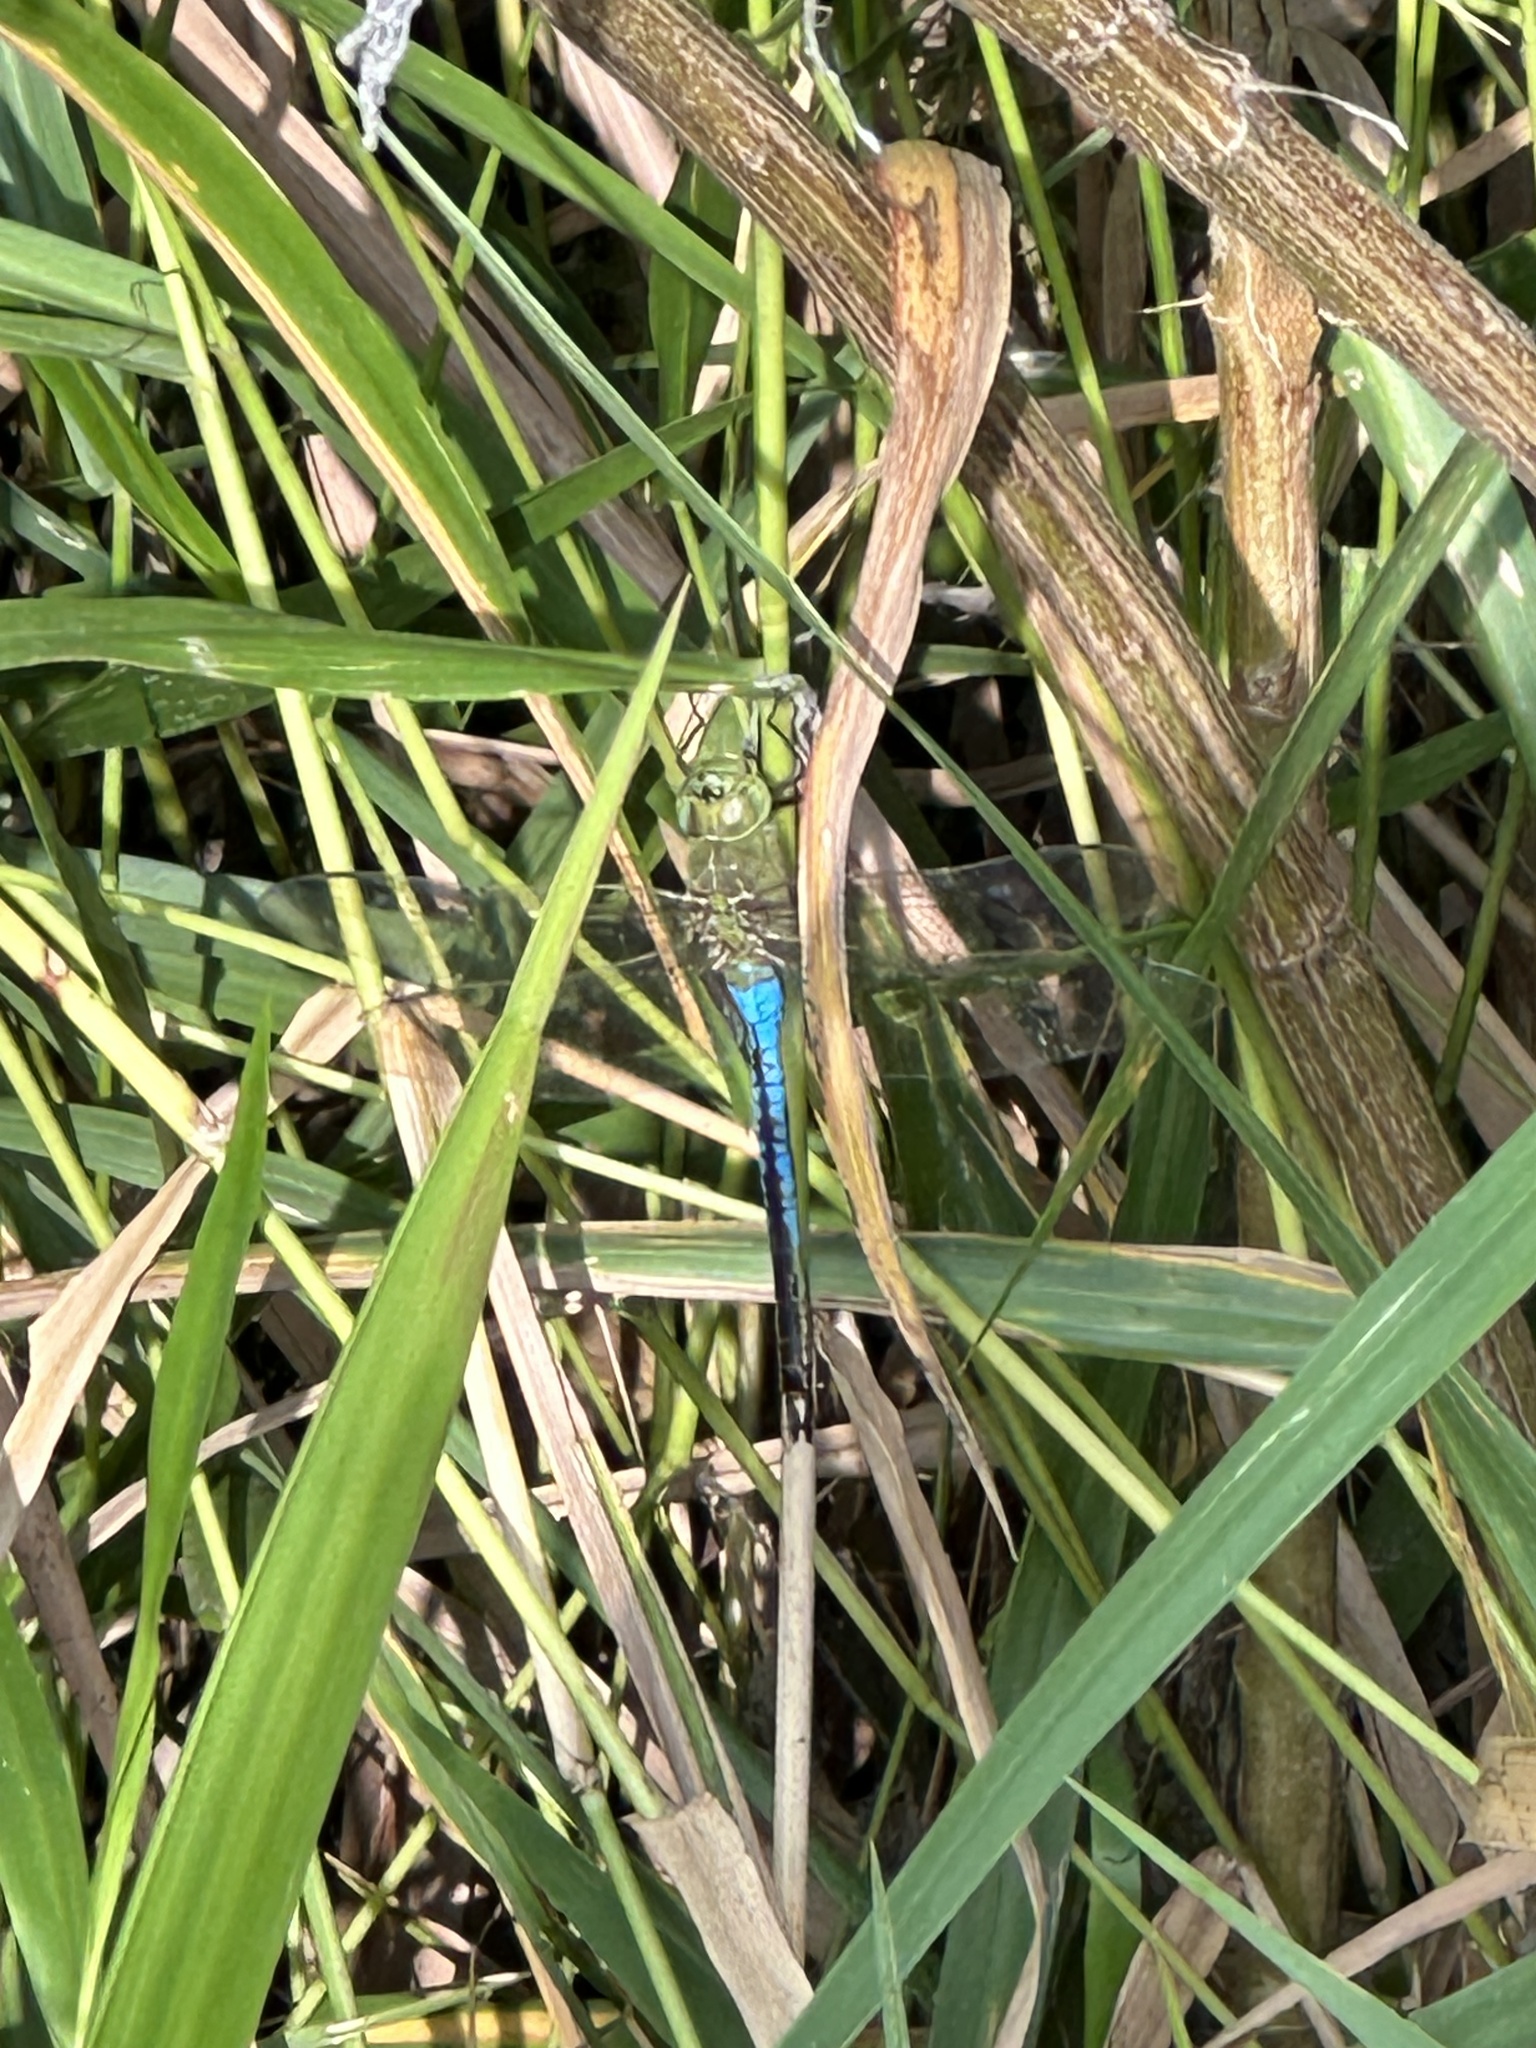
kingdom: Animalia
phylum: Arthropoda
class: Insecta
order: Odonata
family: Aeshnidae
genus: Anax
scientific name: Anax junius
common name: Common green darner
